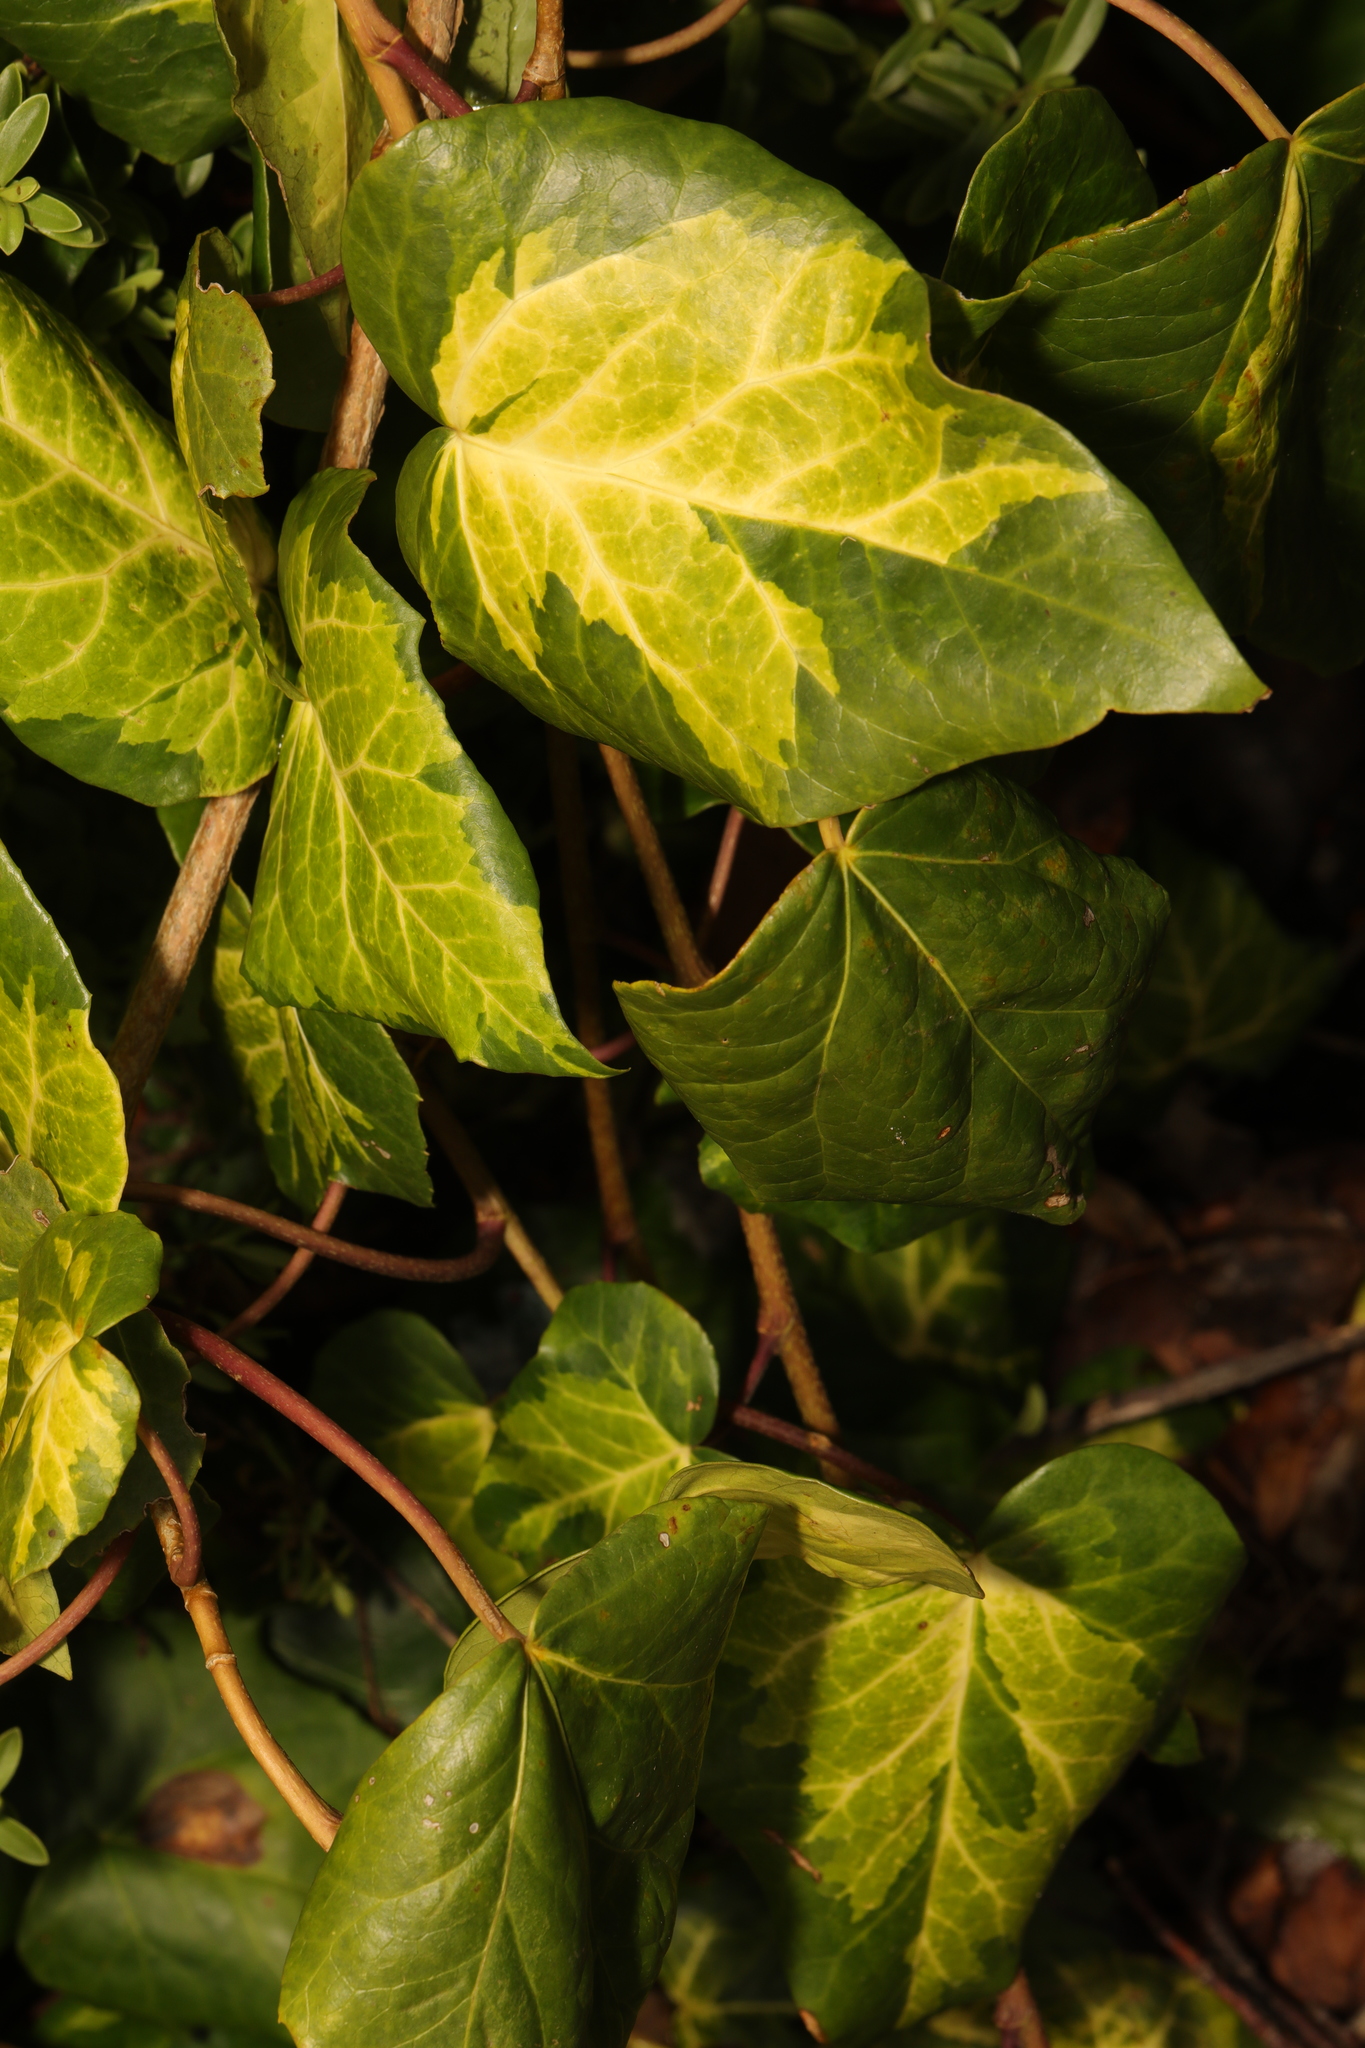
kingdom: Plantae
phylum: Tracheophyta
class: Magnoliopsida
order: Apiales
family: Araliaceae
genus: Hedera
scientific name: Hedera colchica
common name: Persian ivy
